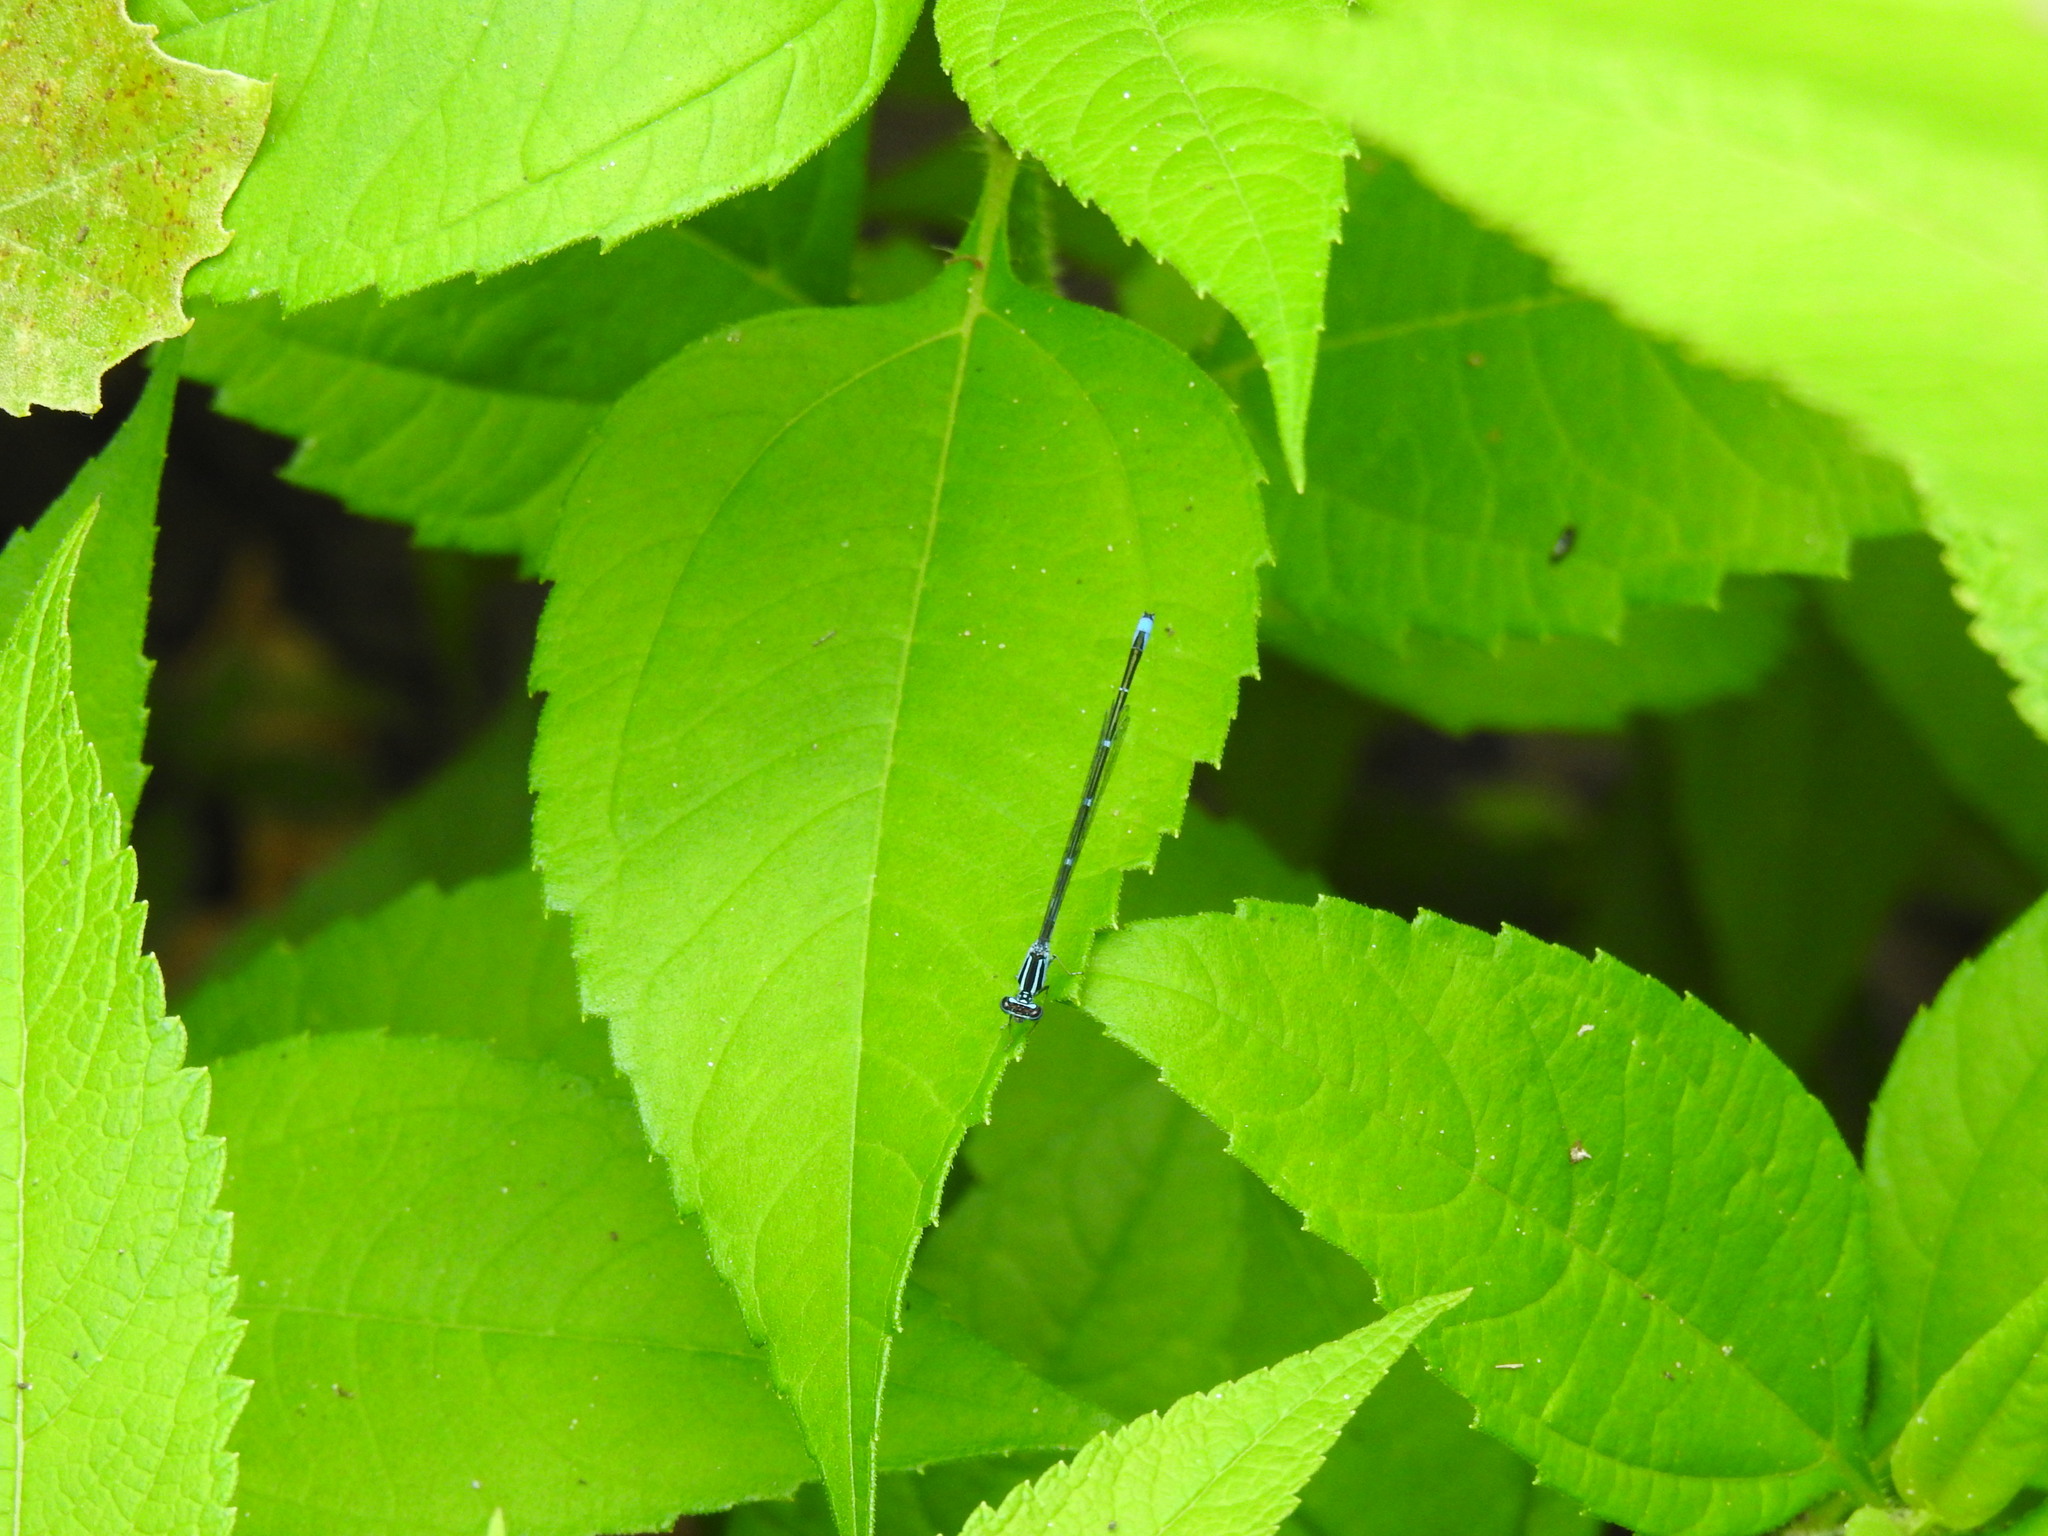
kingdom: Animalia
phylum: Arthropoda
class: Insecta
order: Odonata
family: Coenagrionidae
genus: Enallagma
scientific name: Enallagma exsulans
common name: Stream bluet
